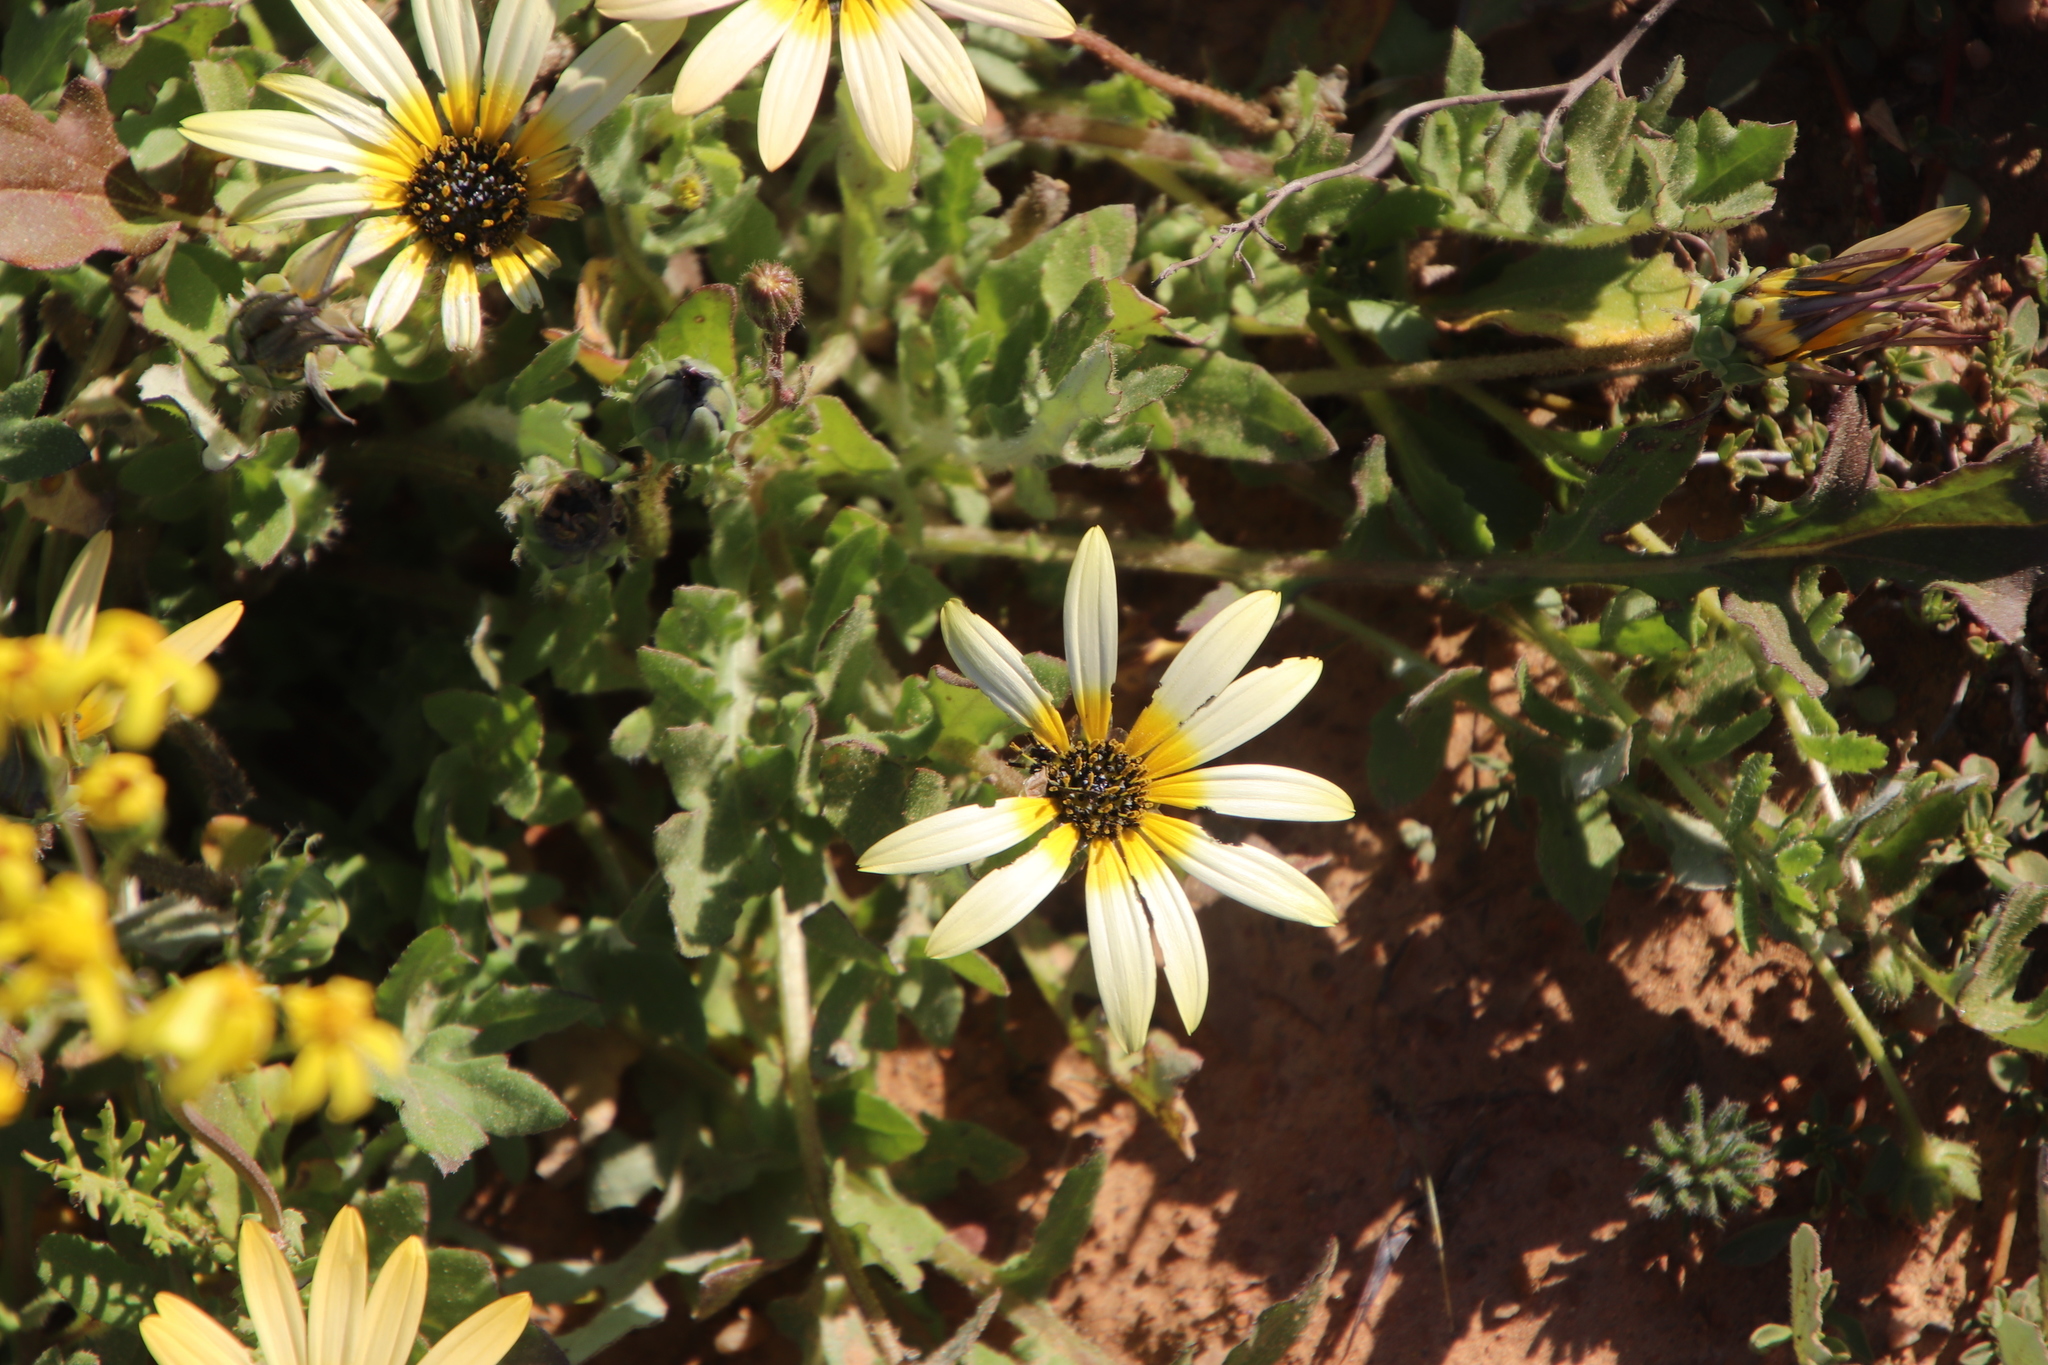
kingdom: Plantae
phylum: Tracheophyta
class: Magnoliopsida
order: Asterales
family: Asteraceae
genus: Arctotheca
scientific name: Arctotheca calendula
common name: Capeweed
